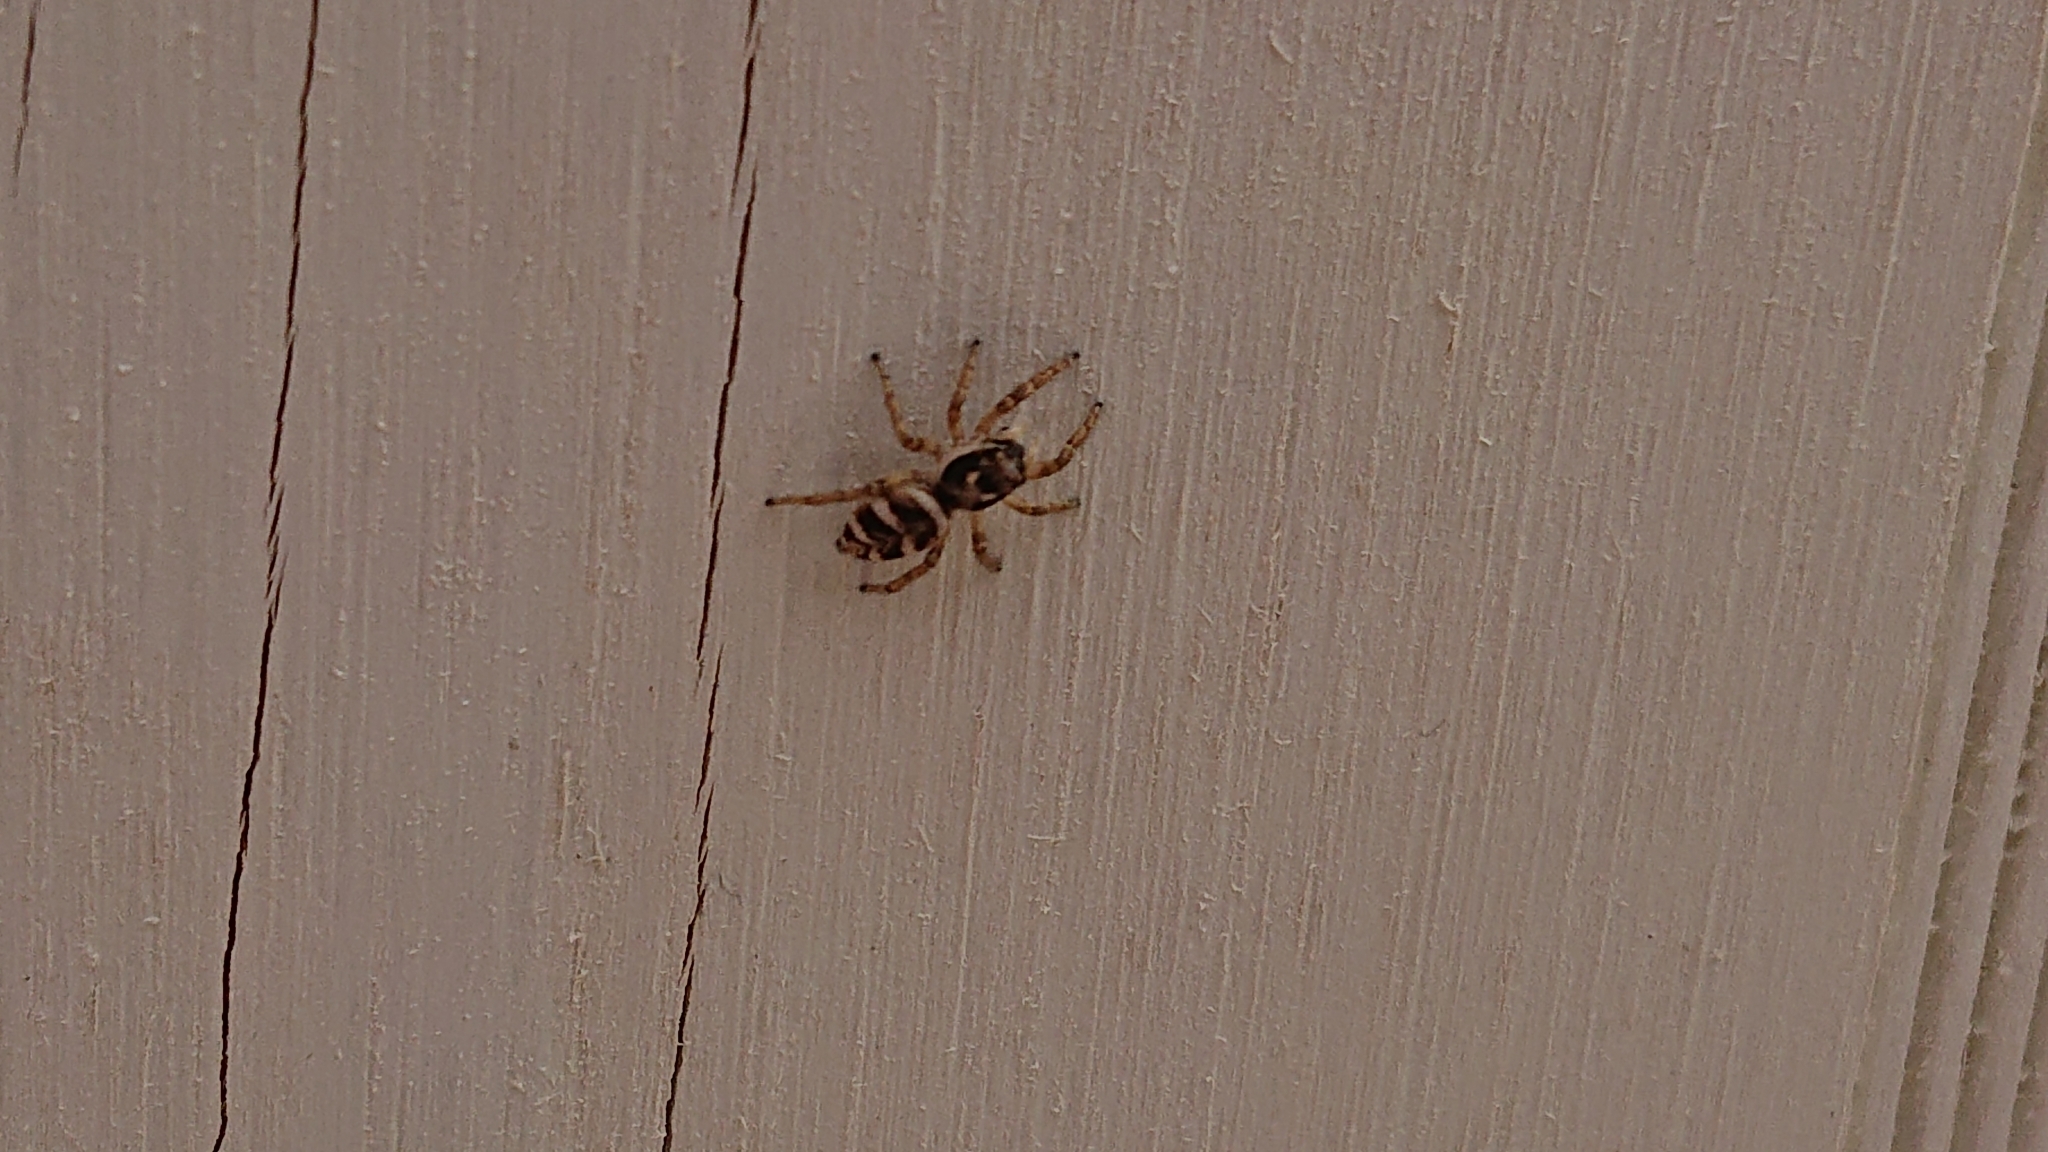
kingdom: Animalia
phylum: Arthropoda
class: Arachnida
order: Araneae
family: Salticidae
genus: Salticus
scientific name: Salticus scenicus
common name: Zebra jumper
